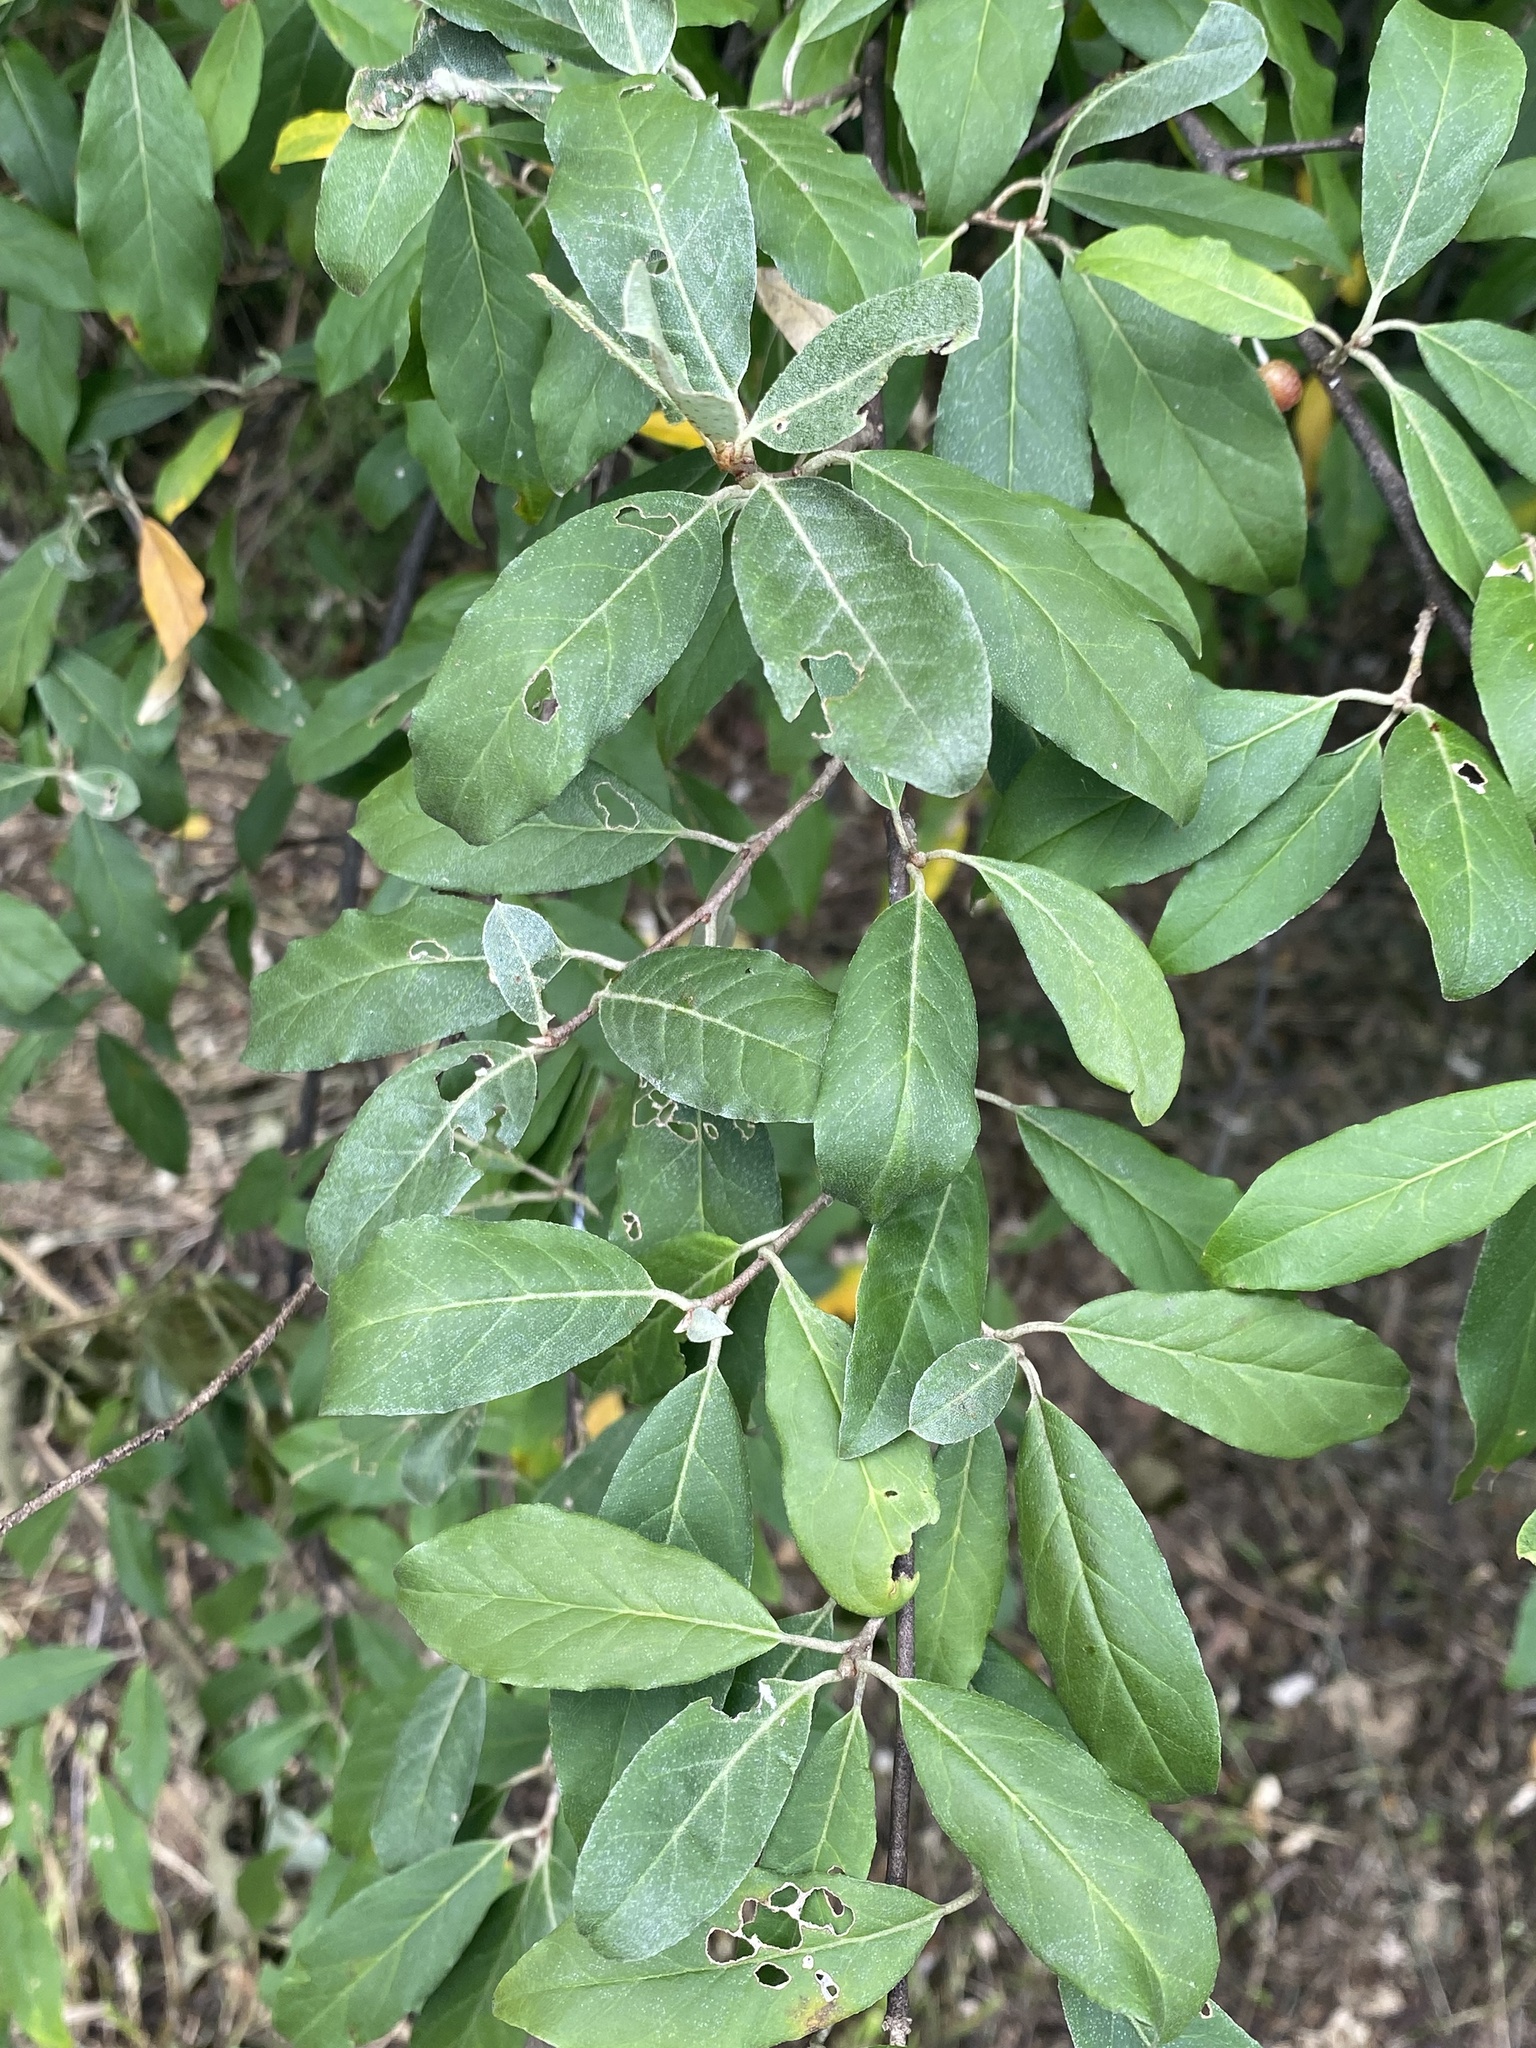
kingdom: Plantae
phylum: Tracheophyta
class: Magnoliopsida
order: Rosales
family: Elaeagnaceae
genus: Elaeagnus
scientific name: Elaeagnus umbellata
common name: Autumn olive
